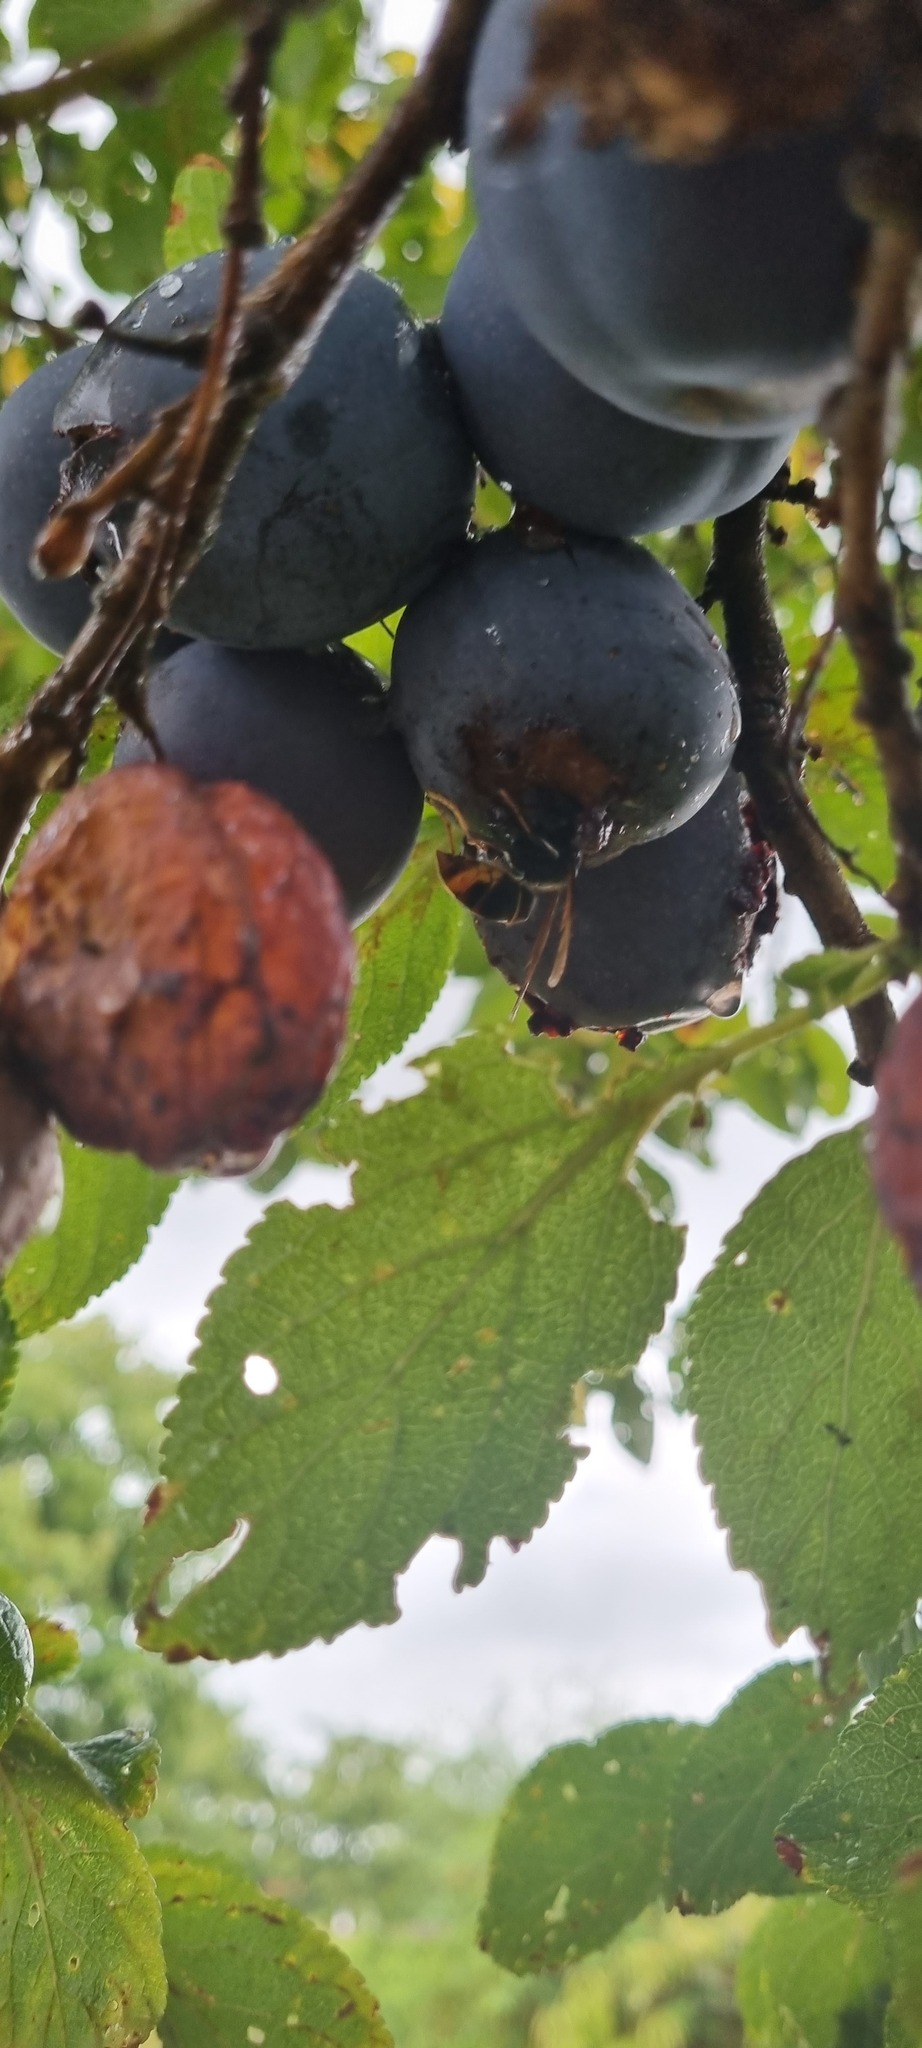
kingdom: Animalia
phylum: Arthropoda
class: Insecta
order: Hymenoptera
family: Vespidae
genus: Vespa
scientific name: Vespa velutina
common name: Asian hornet
